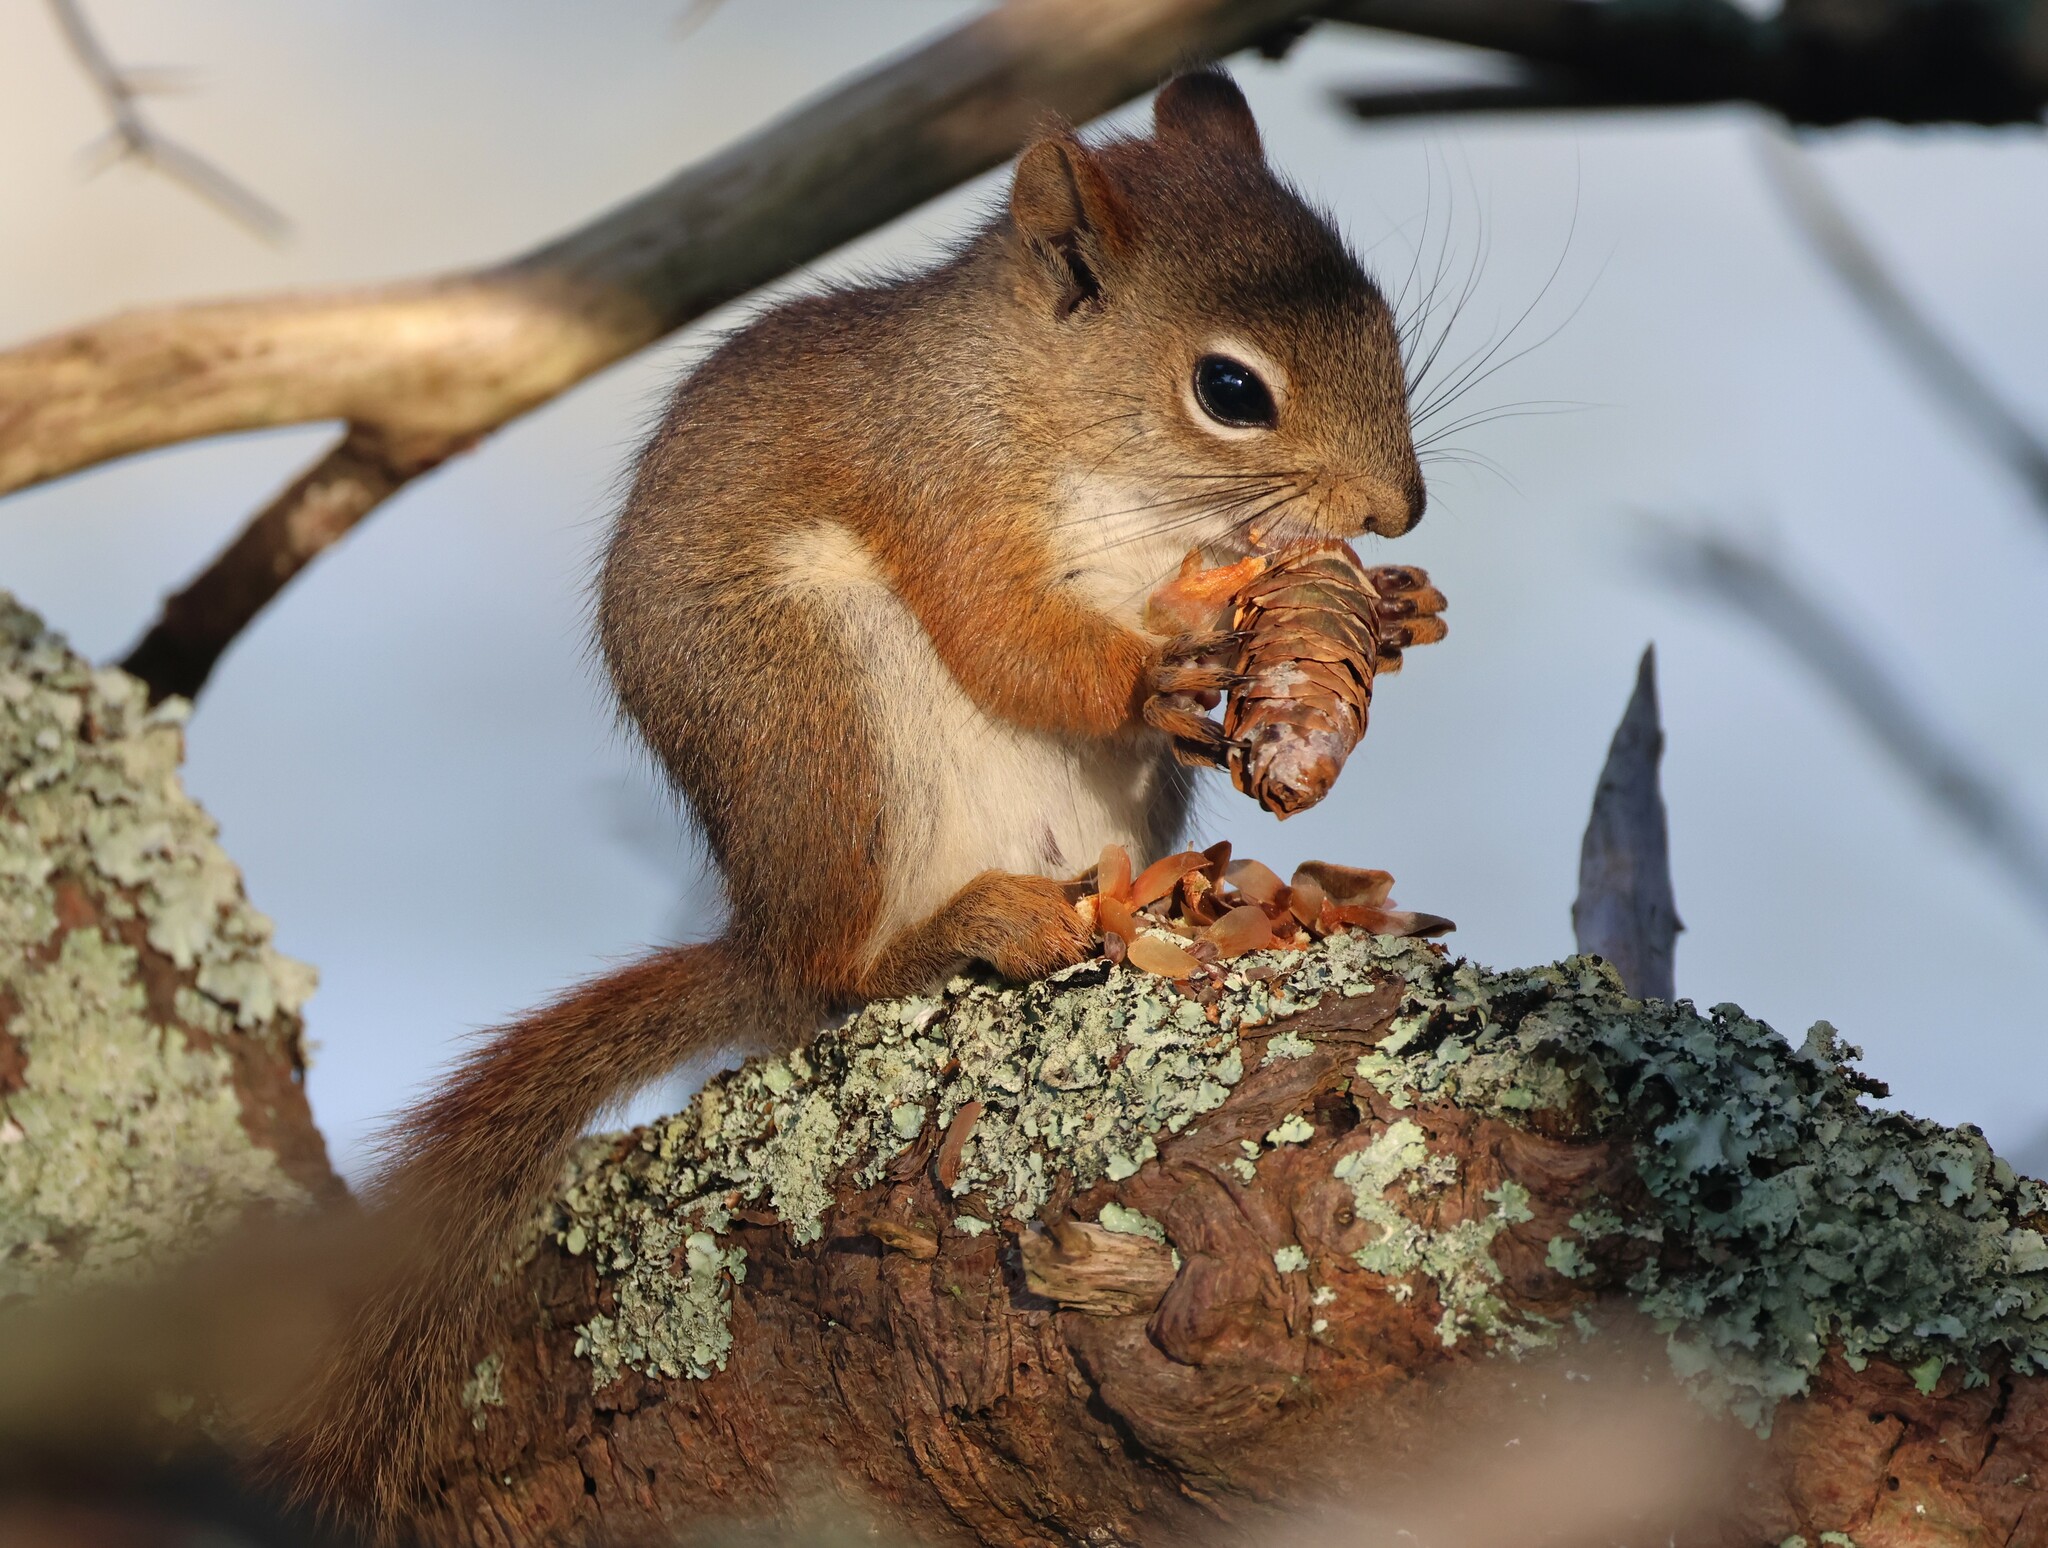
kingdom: Animalia
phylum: Chordata
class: Mammalia
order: Rodentia
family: Sciuridae
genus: Tamiasciurus
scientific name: Tamiasciurus hudsonicus
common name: Red squirrel
